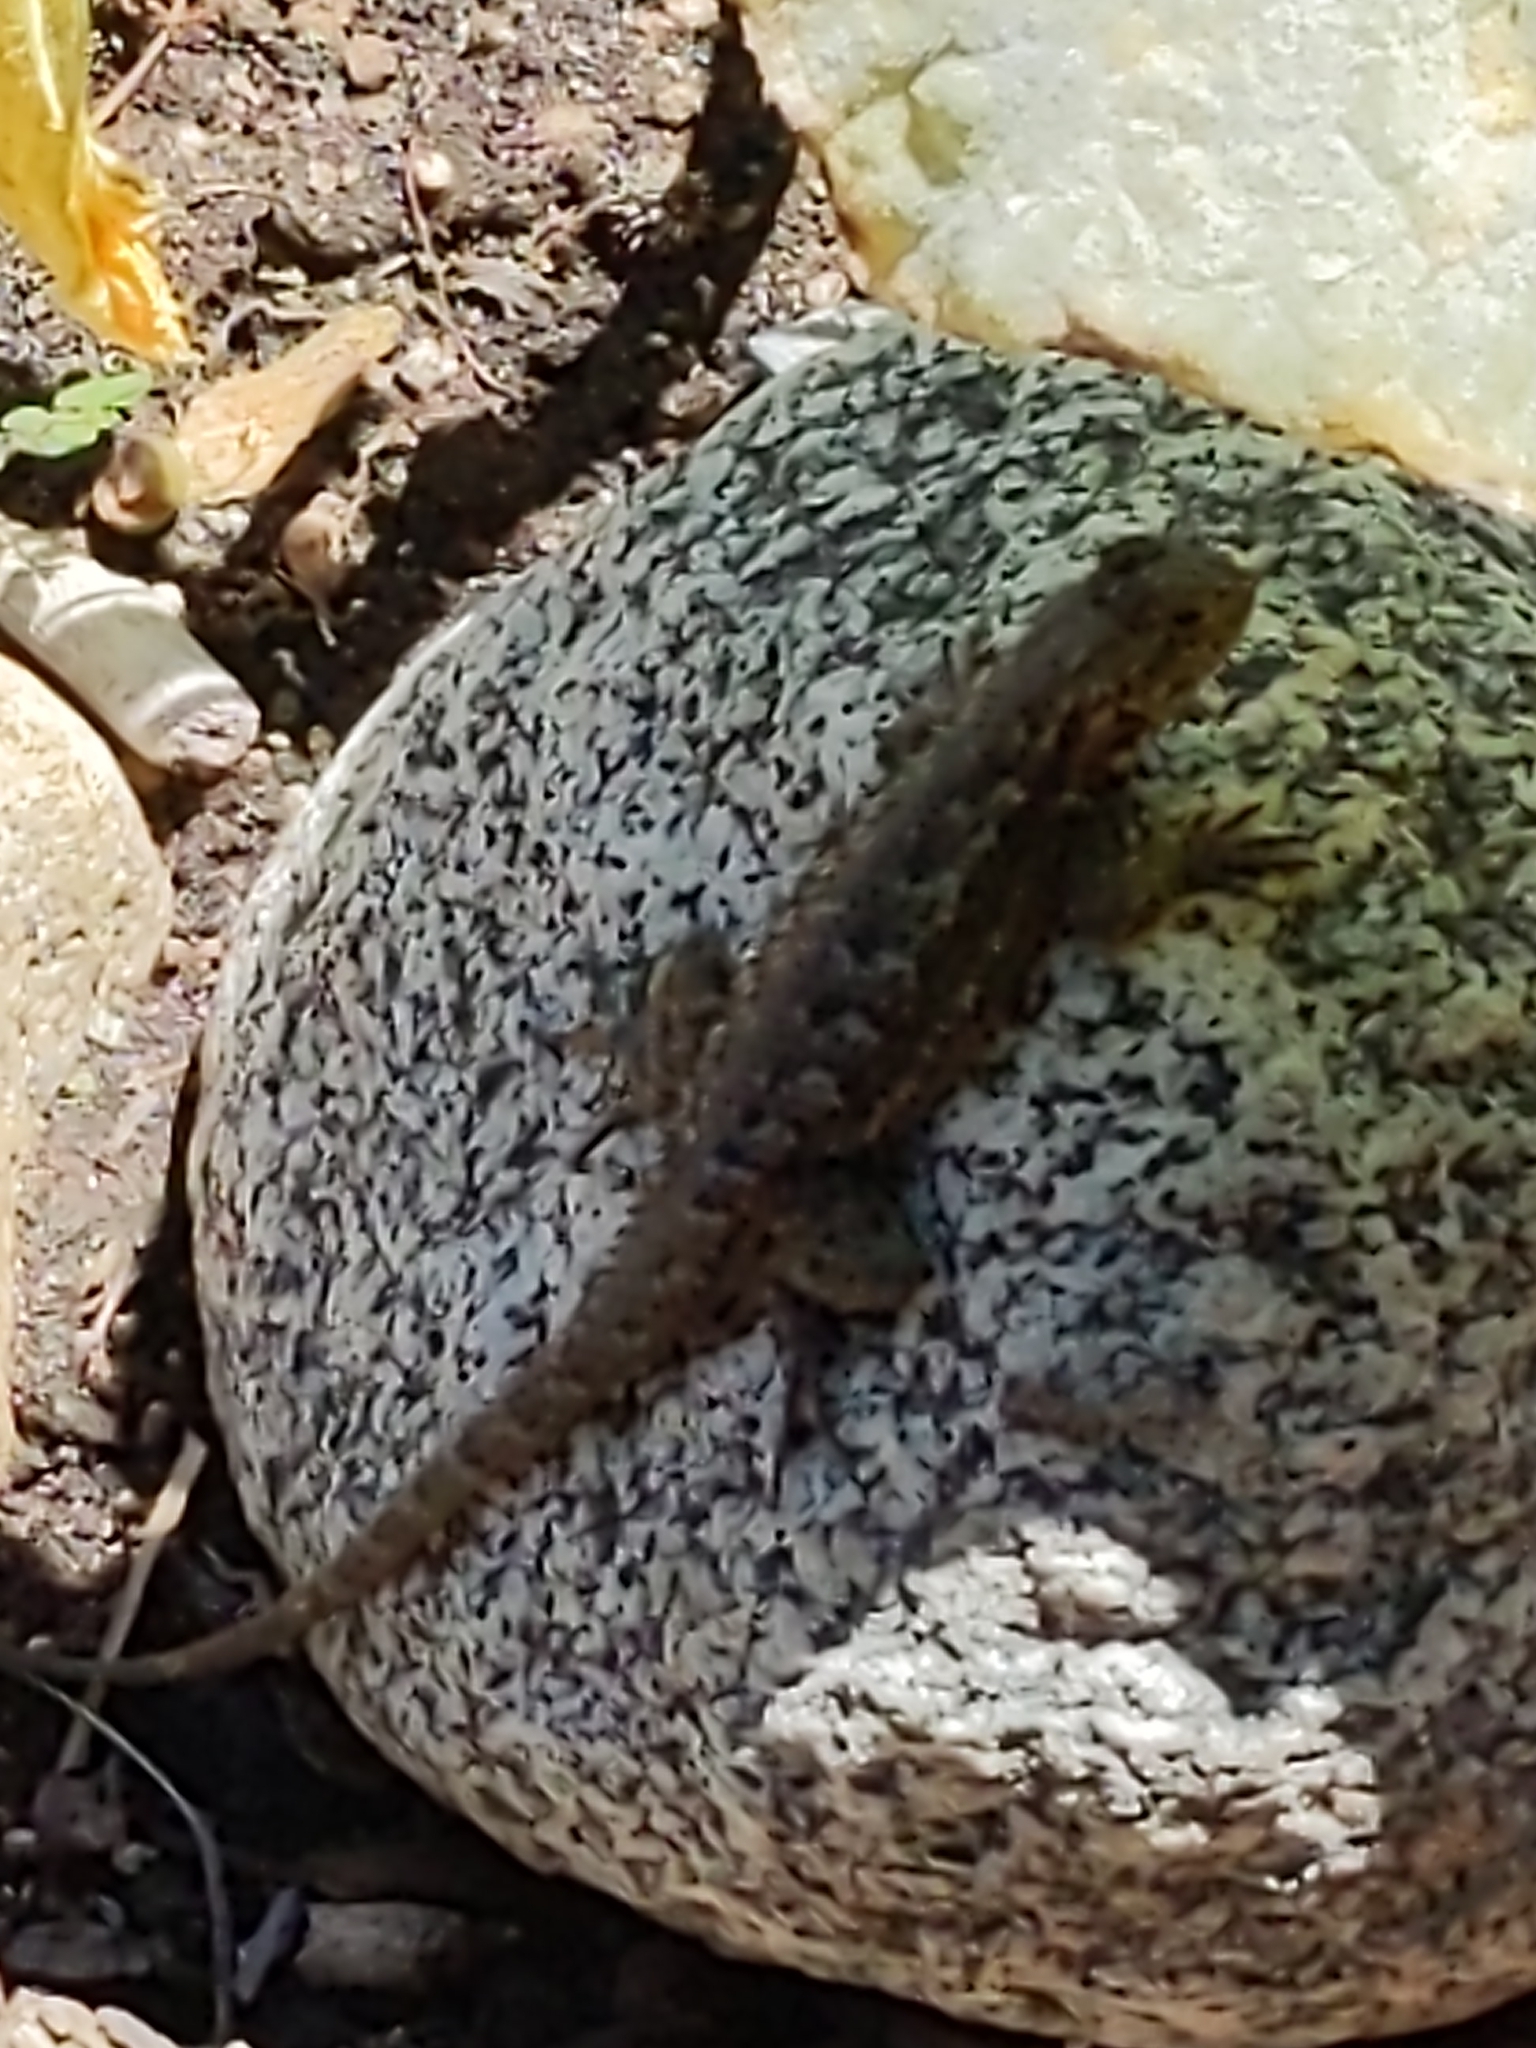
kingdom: Animalia
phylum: Chordata
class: Squamata
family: Phrynosomatidae
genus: Sceloporus
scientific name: Sceloporus occidentalis
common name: Western fence lizard
